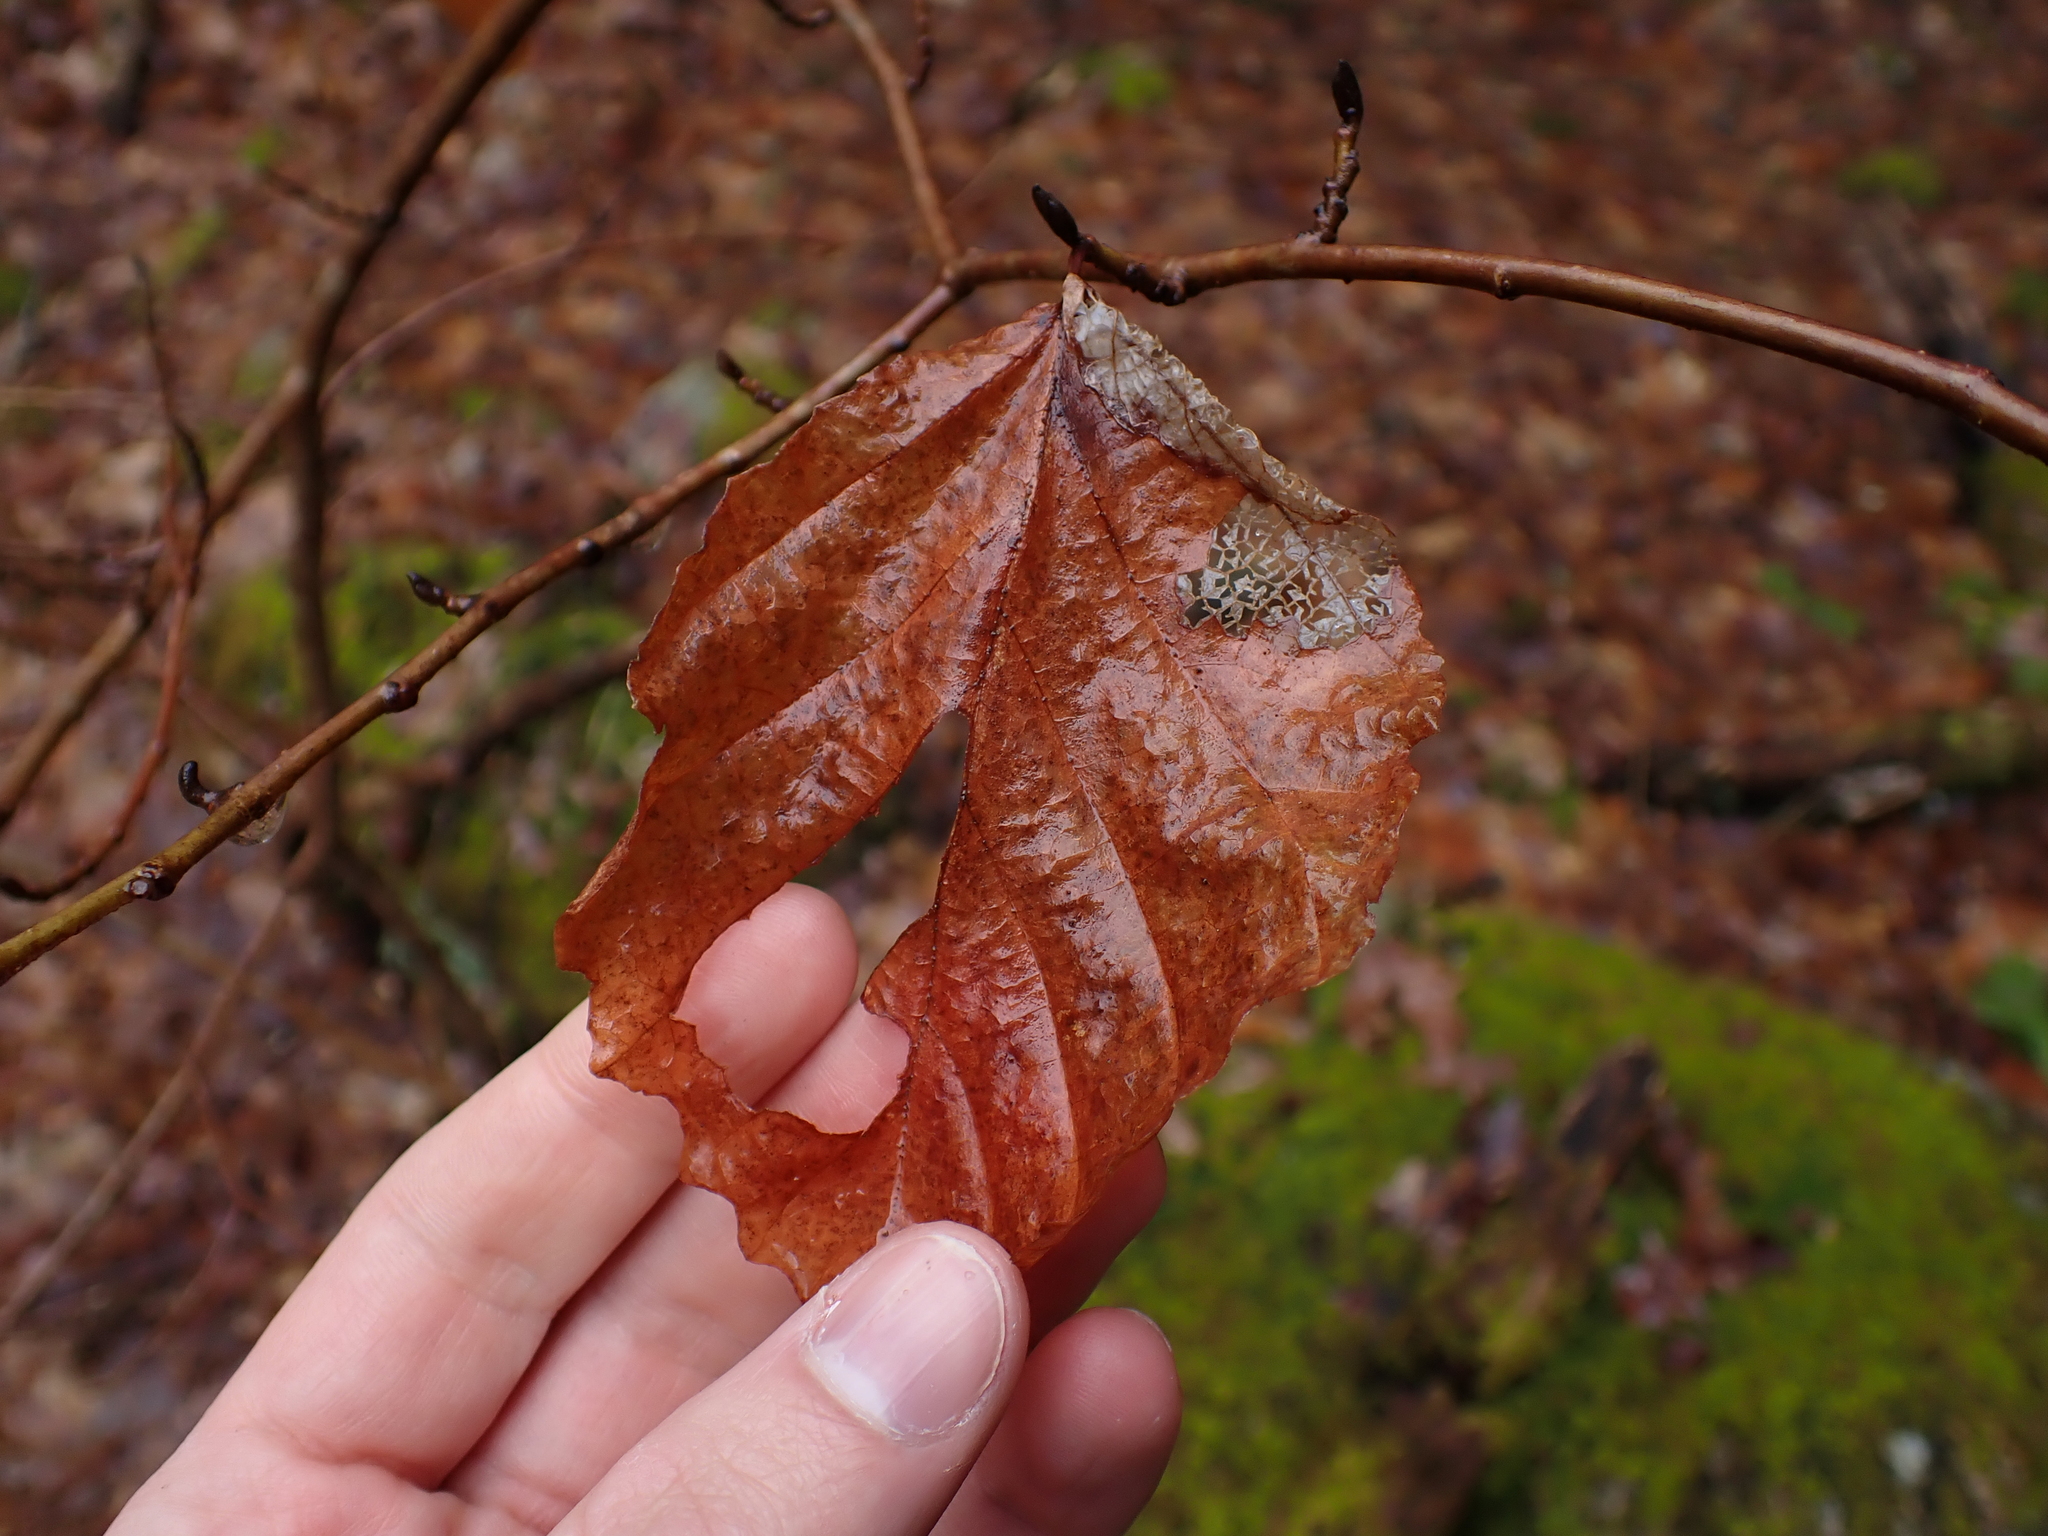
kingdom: Plantae
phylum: Tracheophyta
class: Magnoliopsida
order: Saxifragales
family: Hamamelidaceae
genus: Hamamelis
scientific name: Hamamelis virginiana
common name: Witch-hazel
